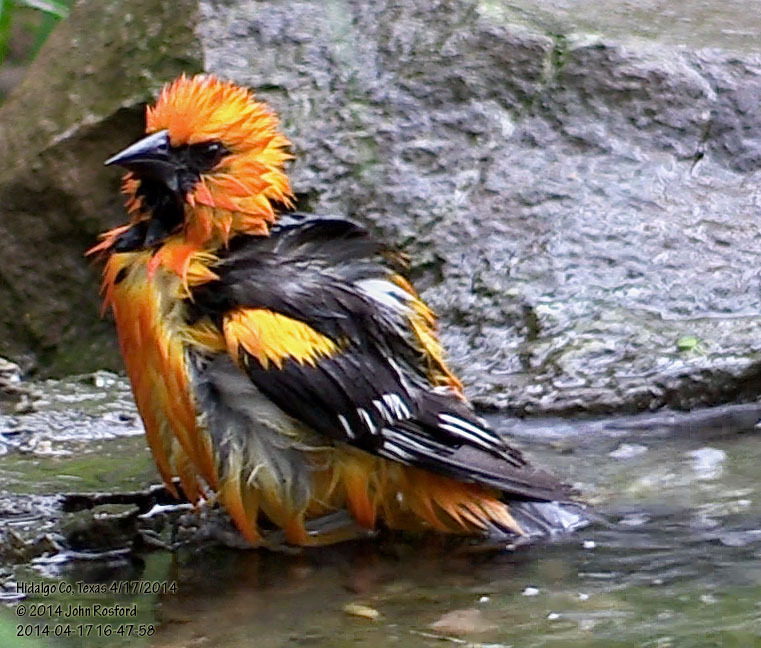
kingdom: Animalia
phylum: Chordata
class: Aves
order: Passeriformes
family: Icteridae
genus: Icterus
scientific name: Icterus gularis
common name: Altamira oriole
